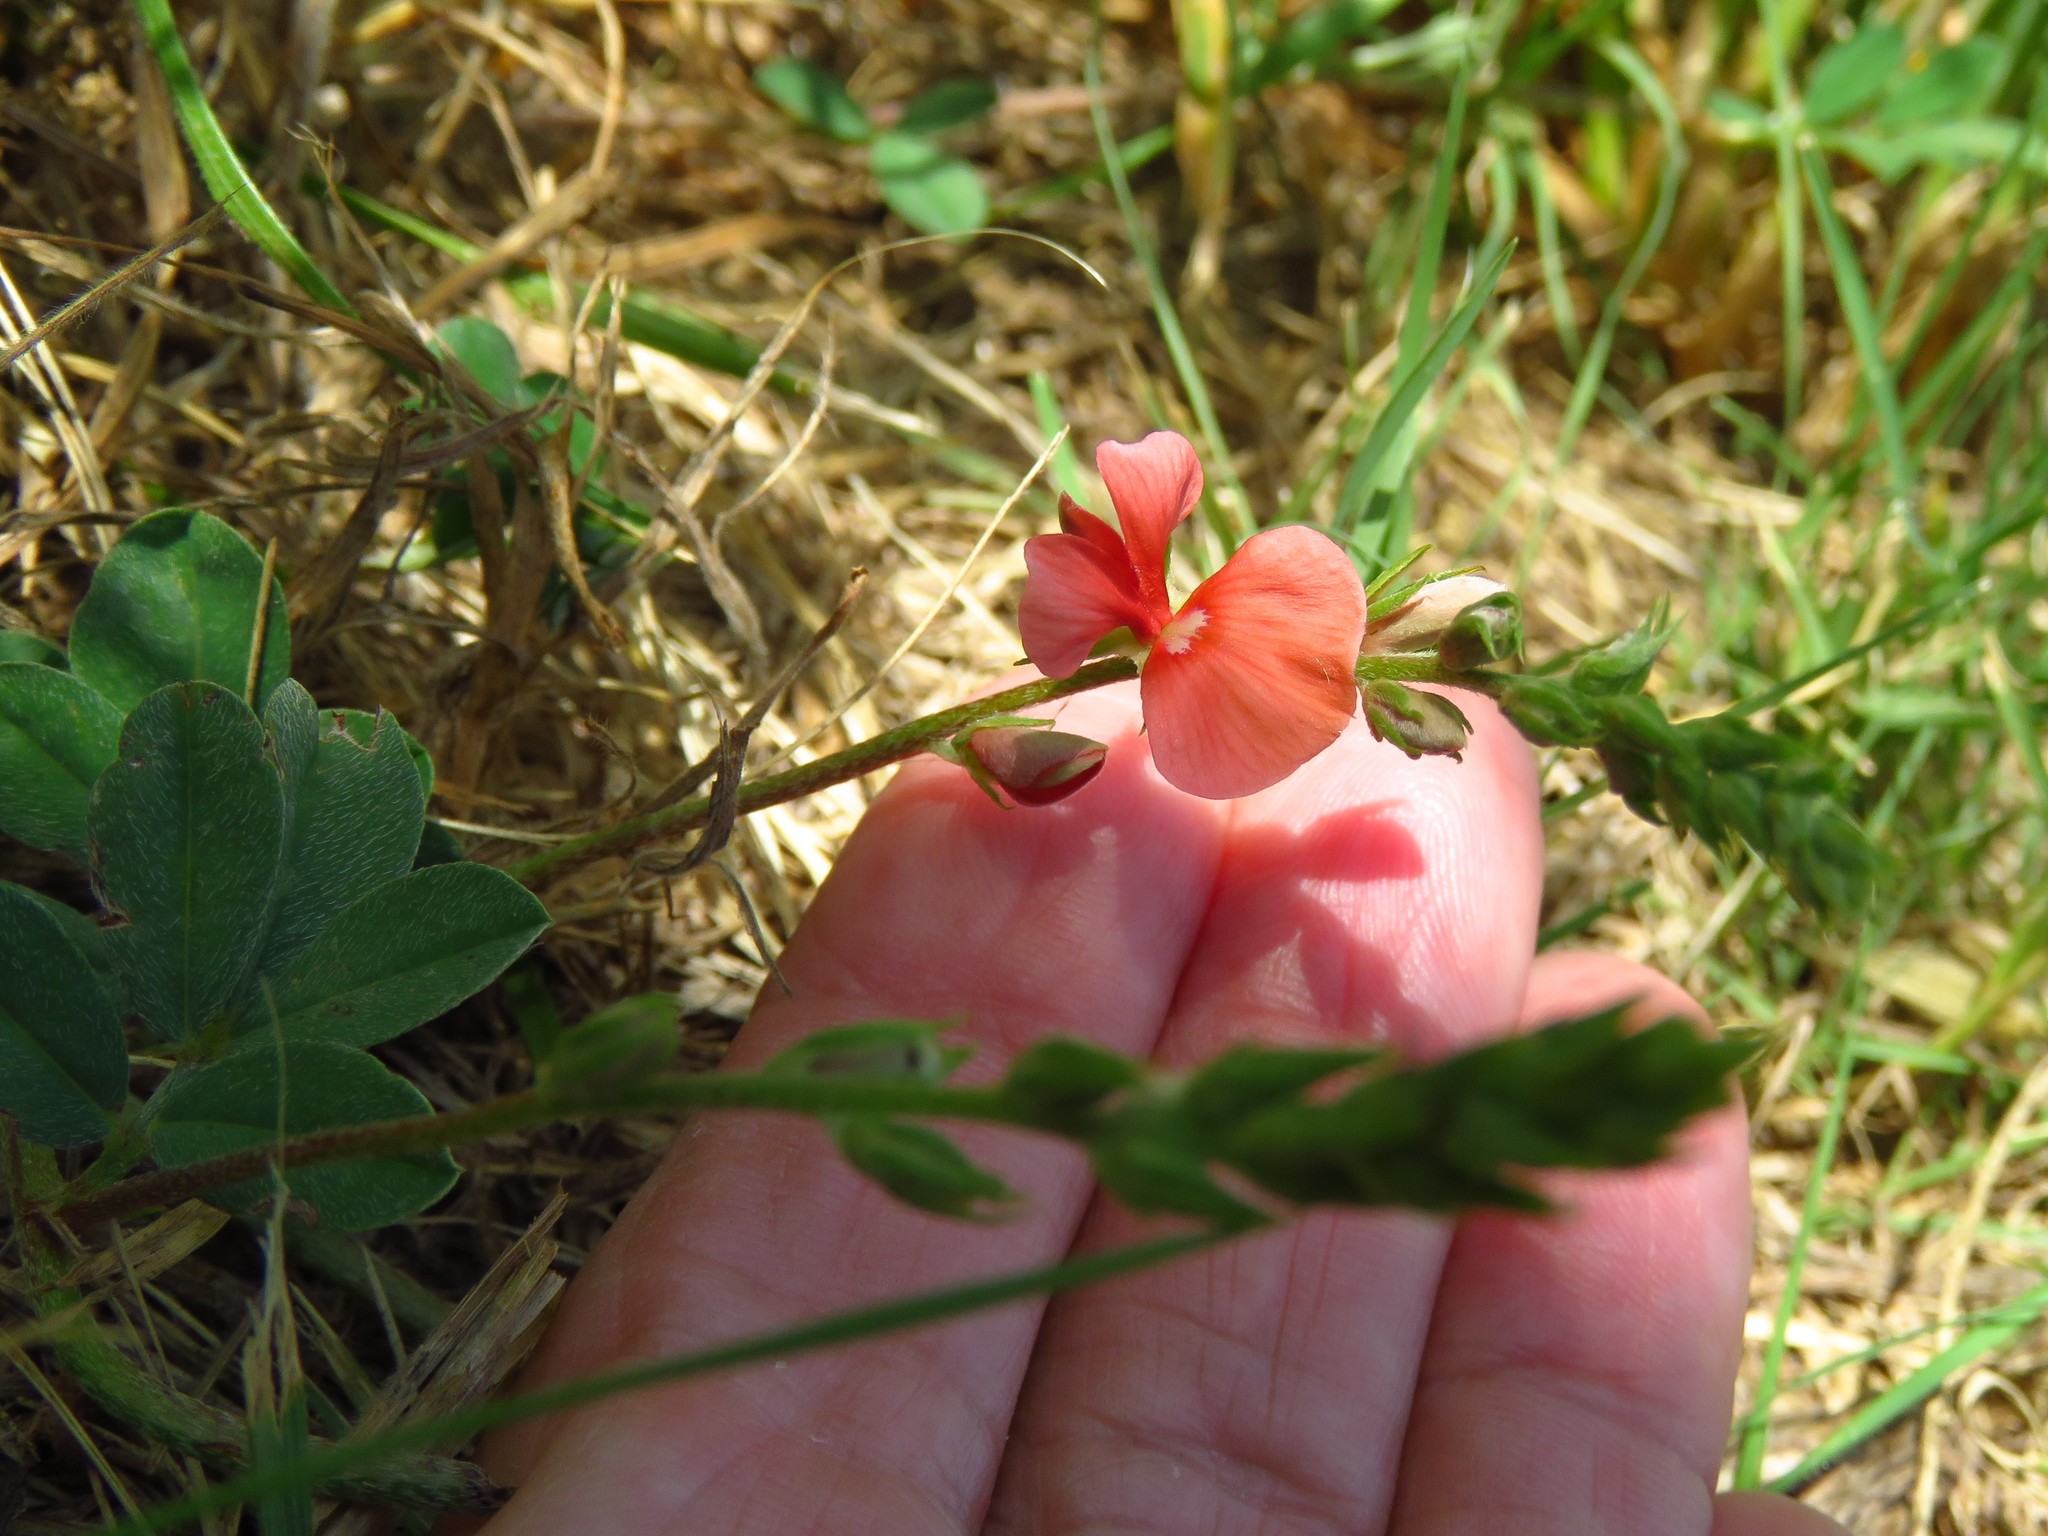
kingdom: Plantae
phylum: Tracheophyta
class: Magnoliopsida
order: Fabales
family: Fabaceae
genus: Indigofera
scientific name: Indigofera miniata
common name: Coast indigo
